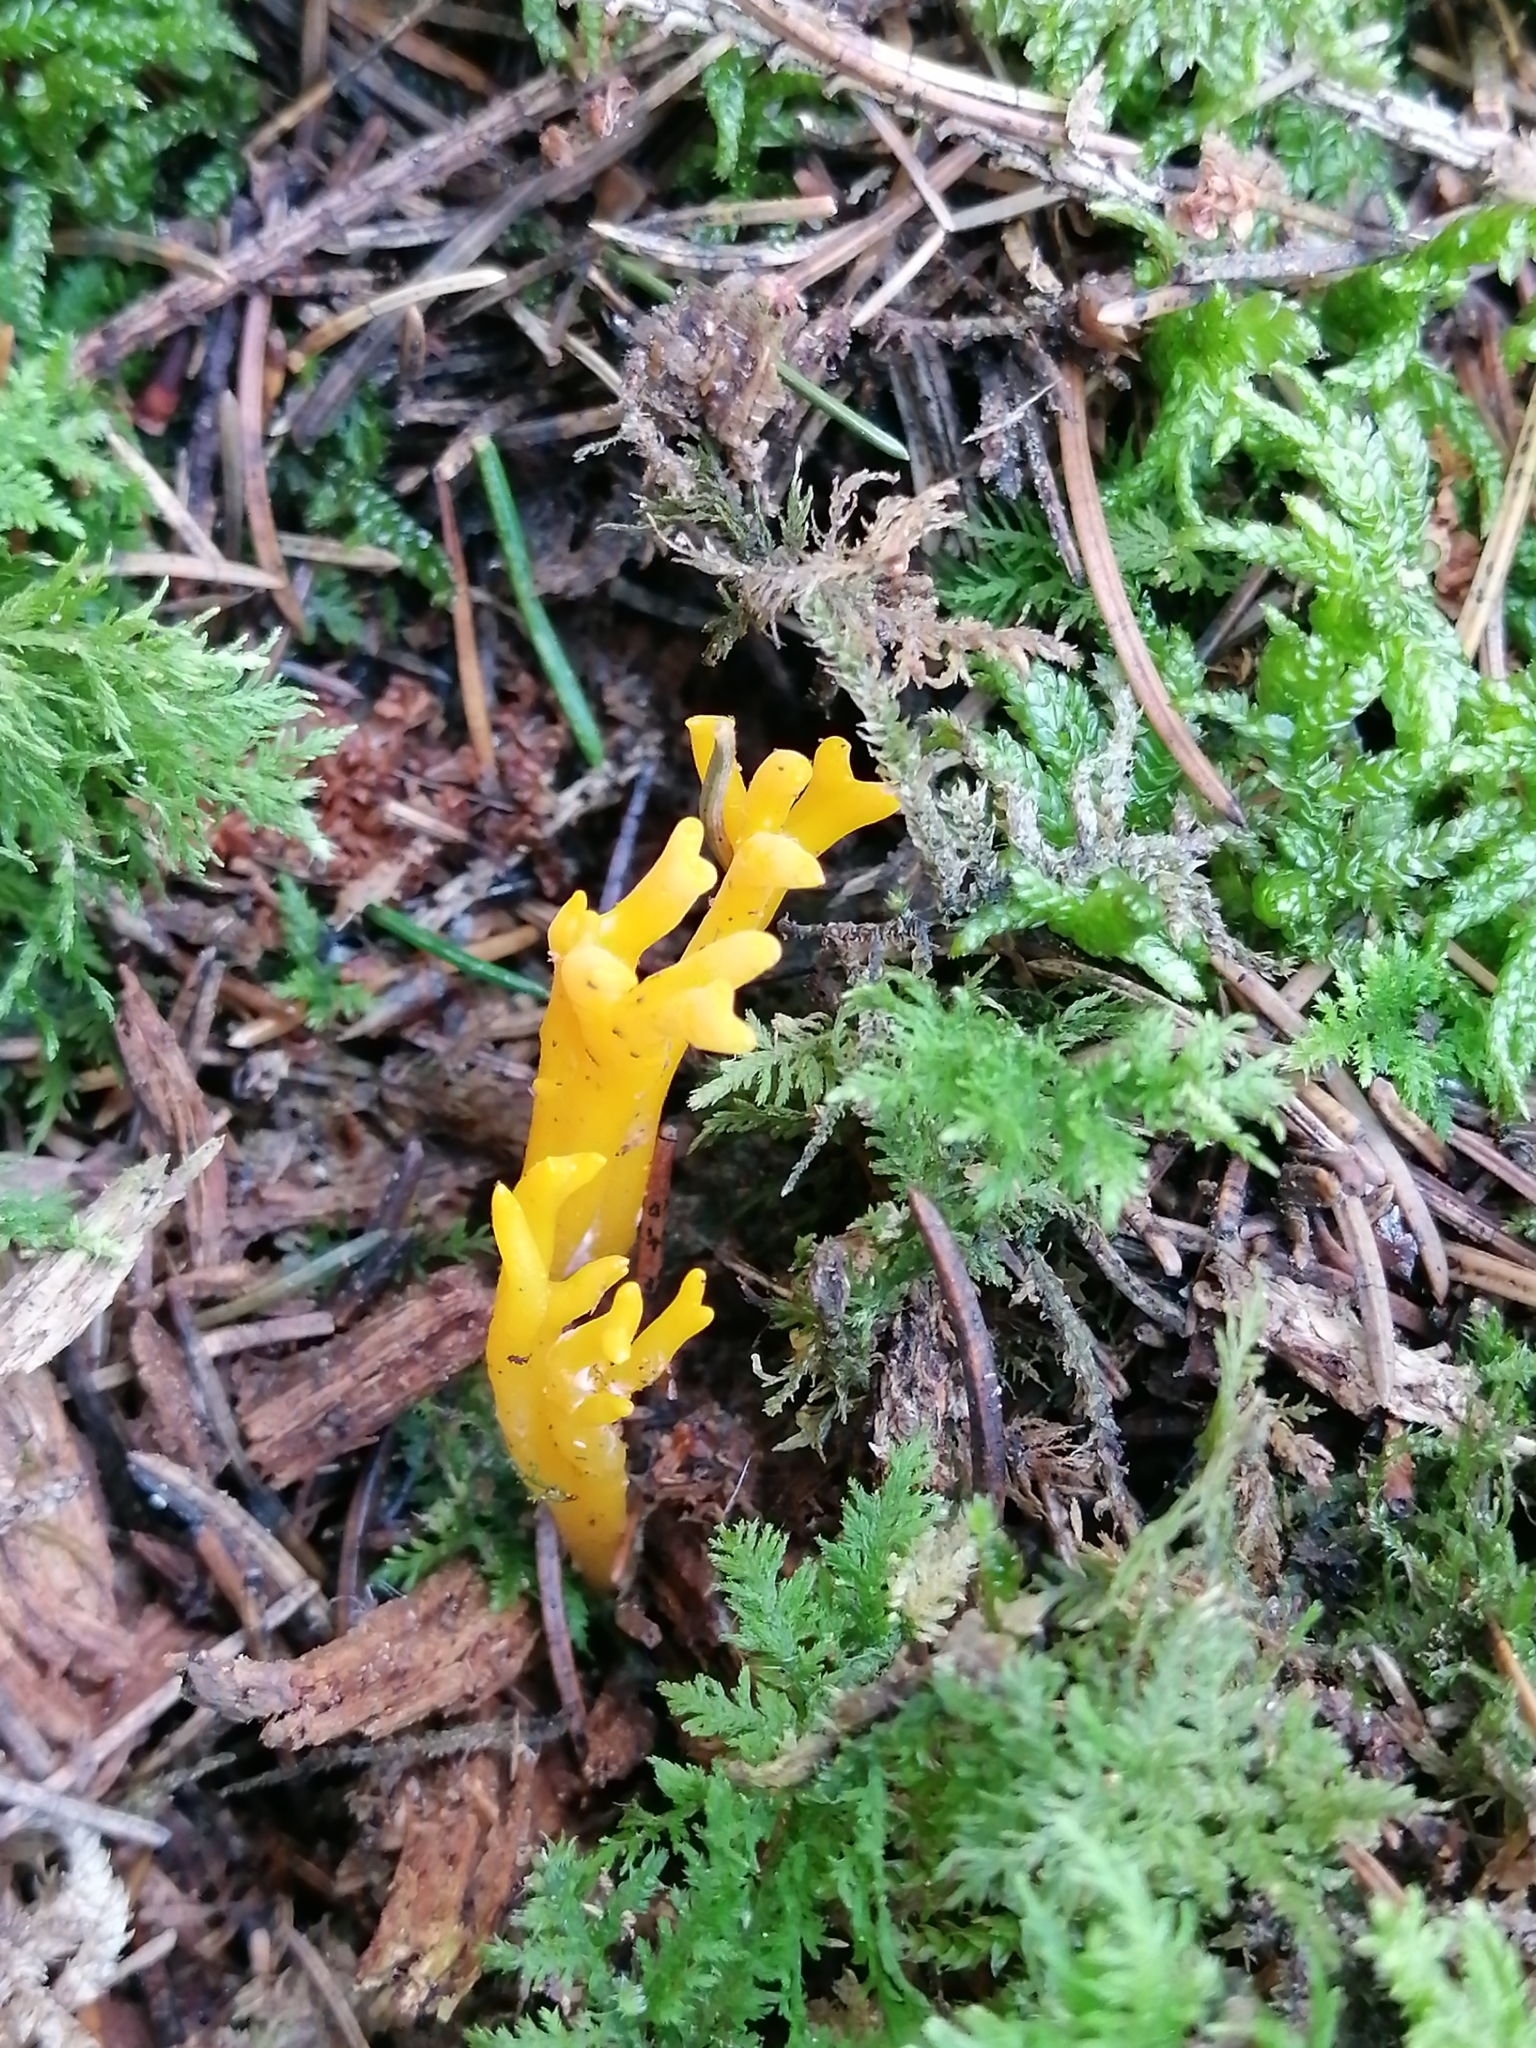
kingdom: Fungi
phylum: Basidiomycota
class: Dacrymycetes
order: Dacrymycetales
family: Dacrymycetaceae
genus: Calocera
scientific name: Calocera viscosa
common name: Yellow stagshorn
